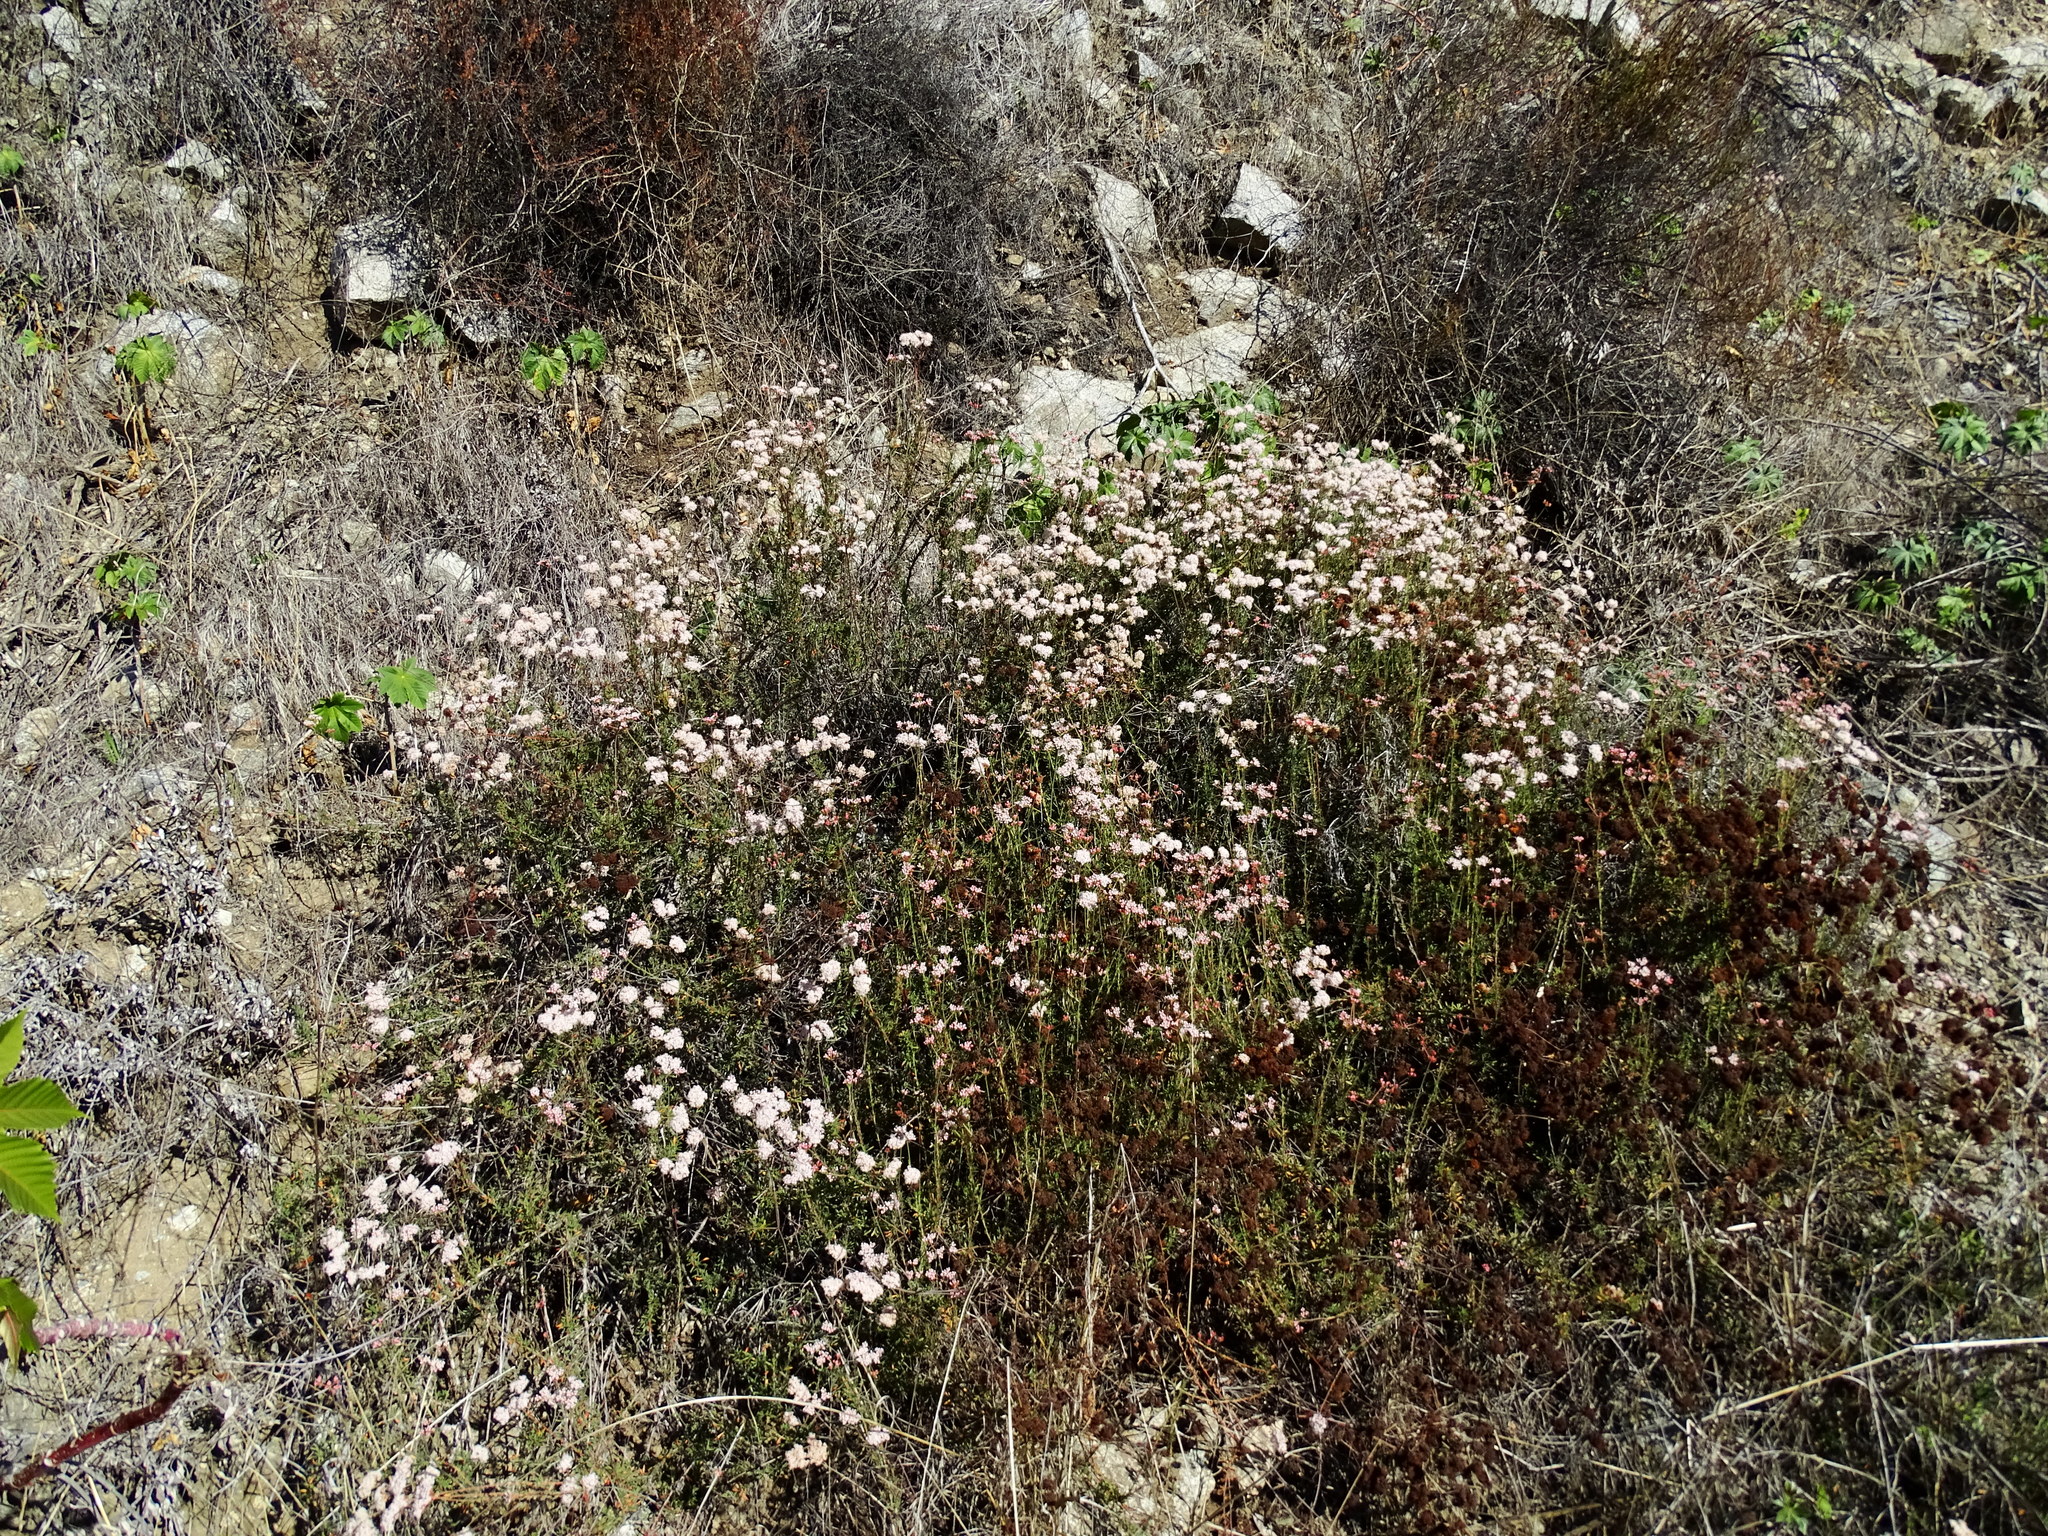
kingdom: Plantae
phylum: Tracheophyta
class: Magnoliopsida
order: Caryophyllales
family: Polygonaceae
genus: Eriogonum
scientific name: Eriogonum fasciculatum
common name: California wild buckwheat
